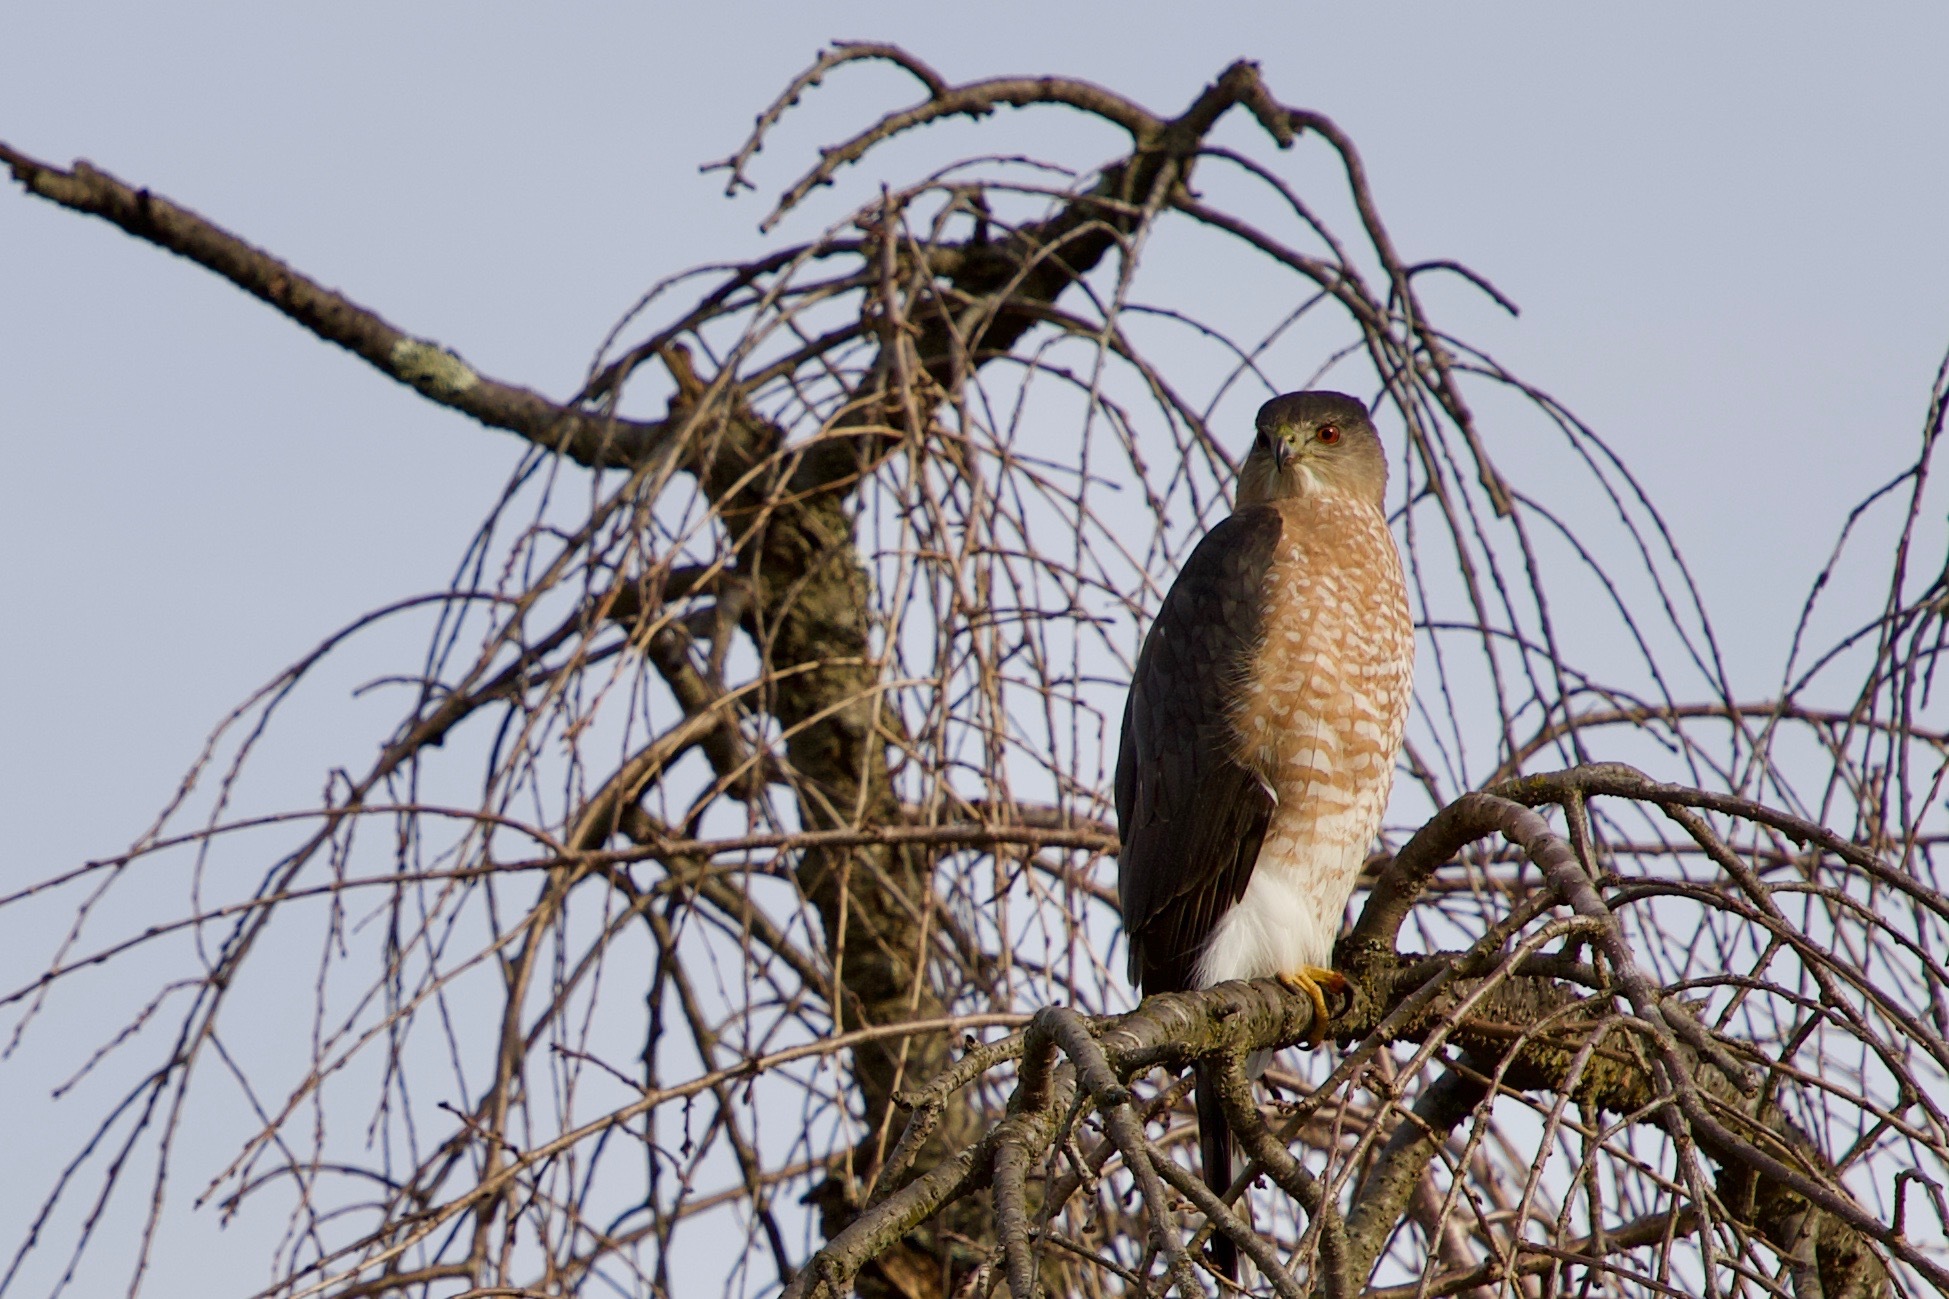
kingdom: Animalia
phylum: Chordata
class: Aves
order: Accipitriformes
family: Accipitridae
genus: Accipiter
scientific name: Accipiter cooperii
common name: Cooper's hawk
